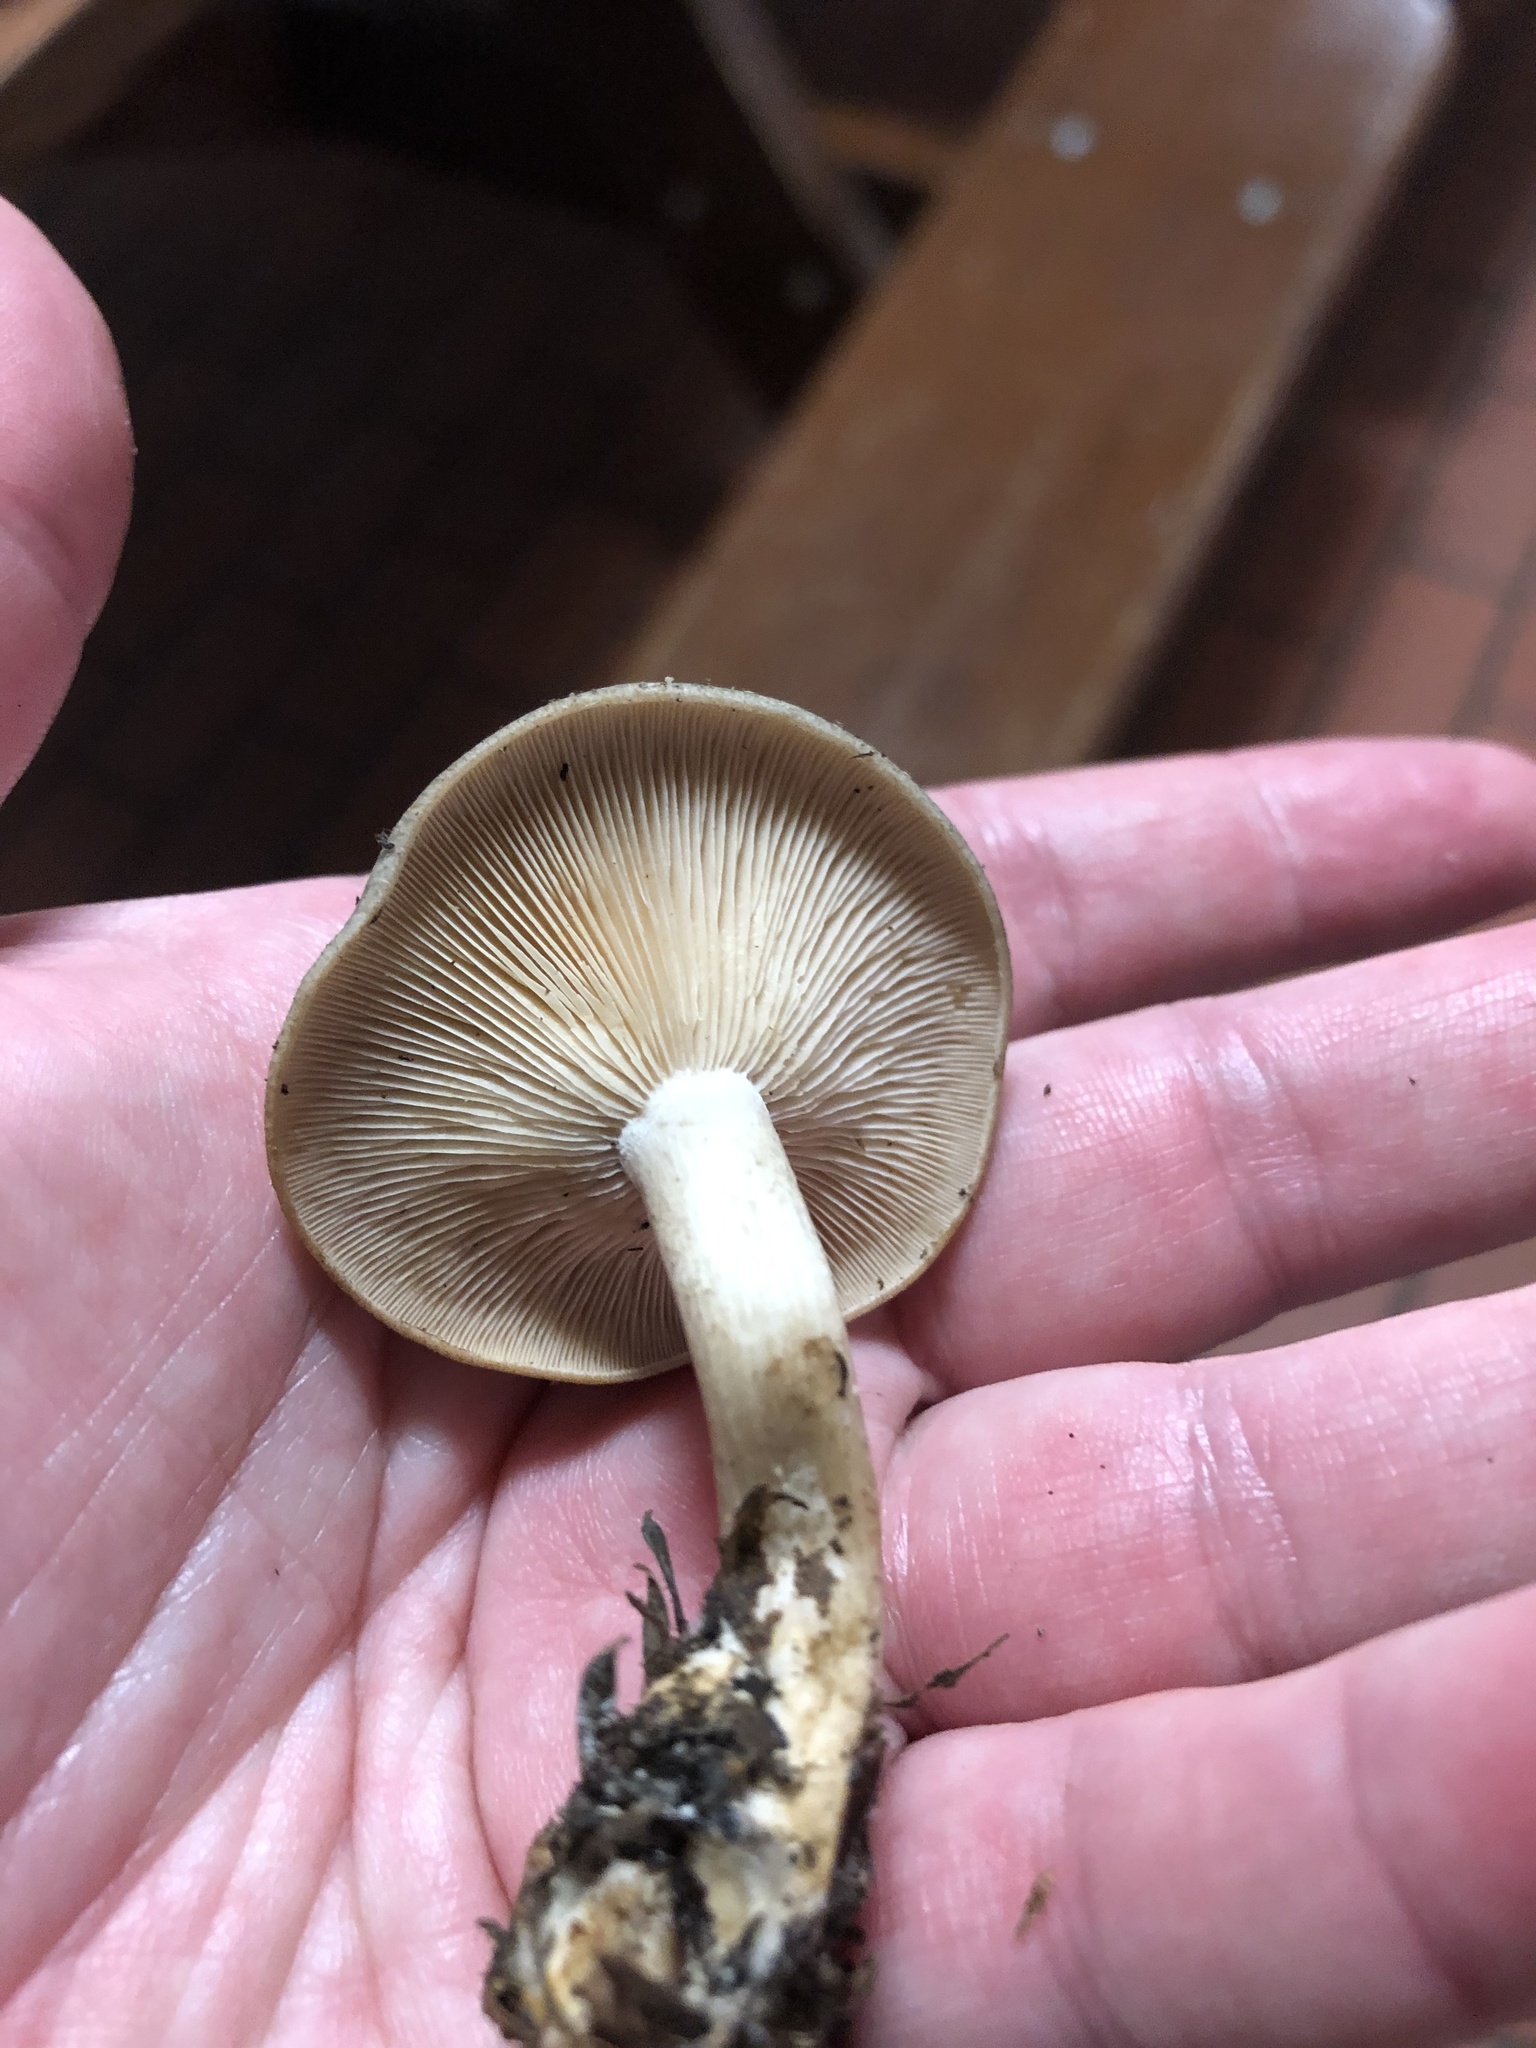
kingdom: Fungi
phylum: Basidiomycota
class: Agaricomycetes
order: Agaricales
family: Tricholomataceae
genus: Collybia
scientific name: Collybia
